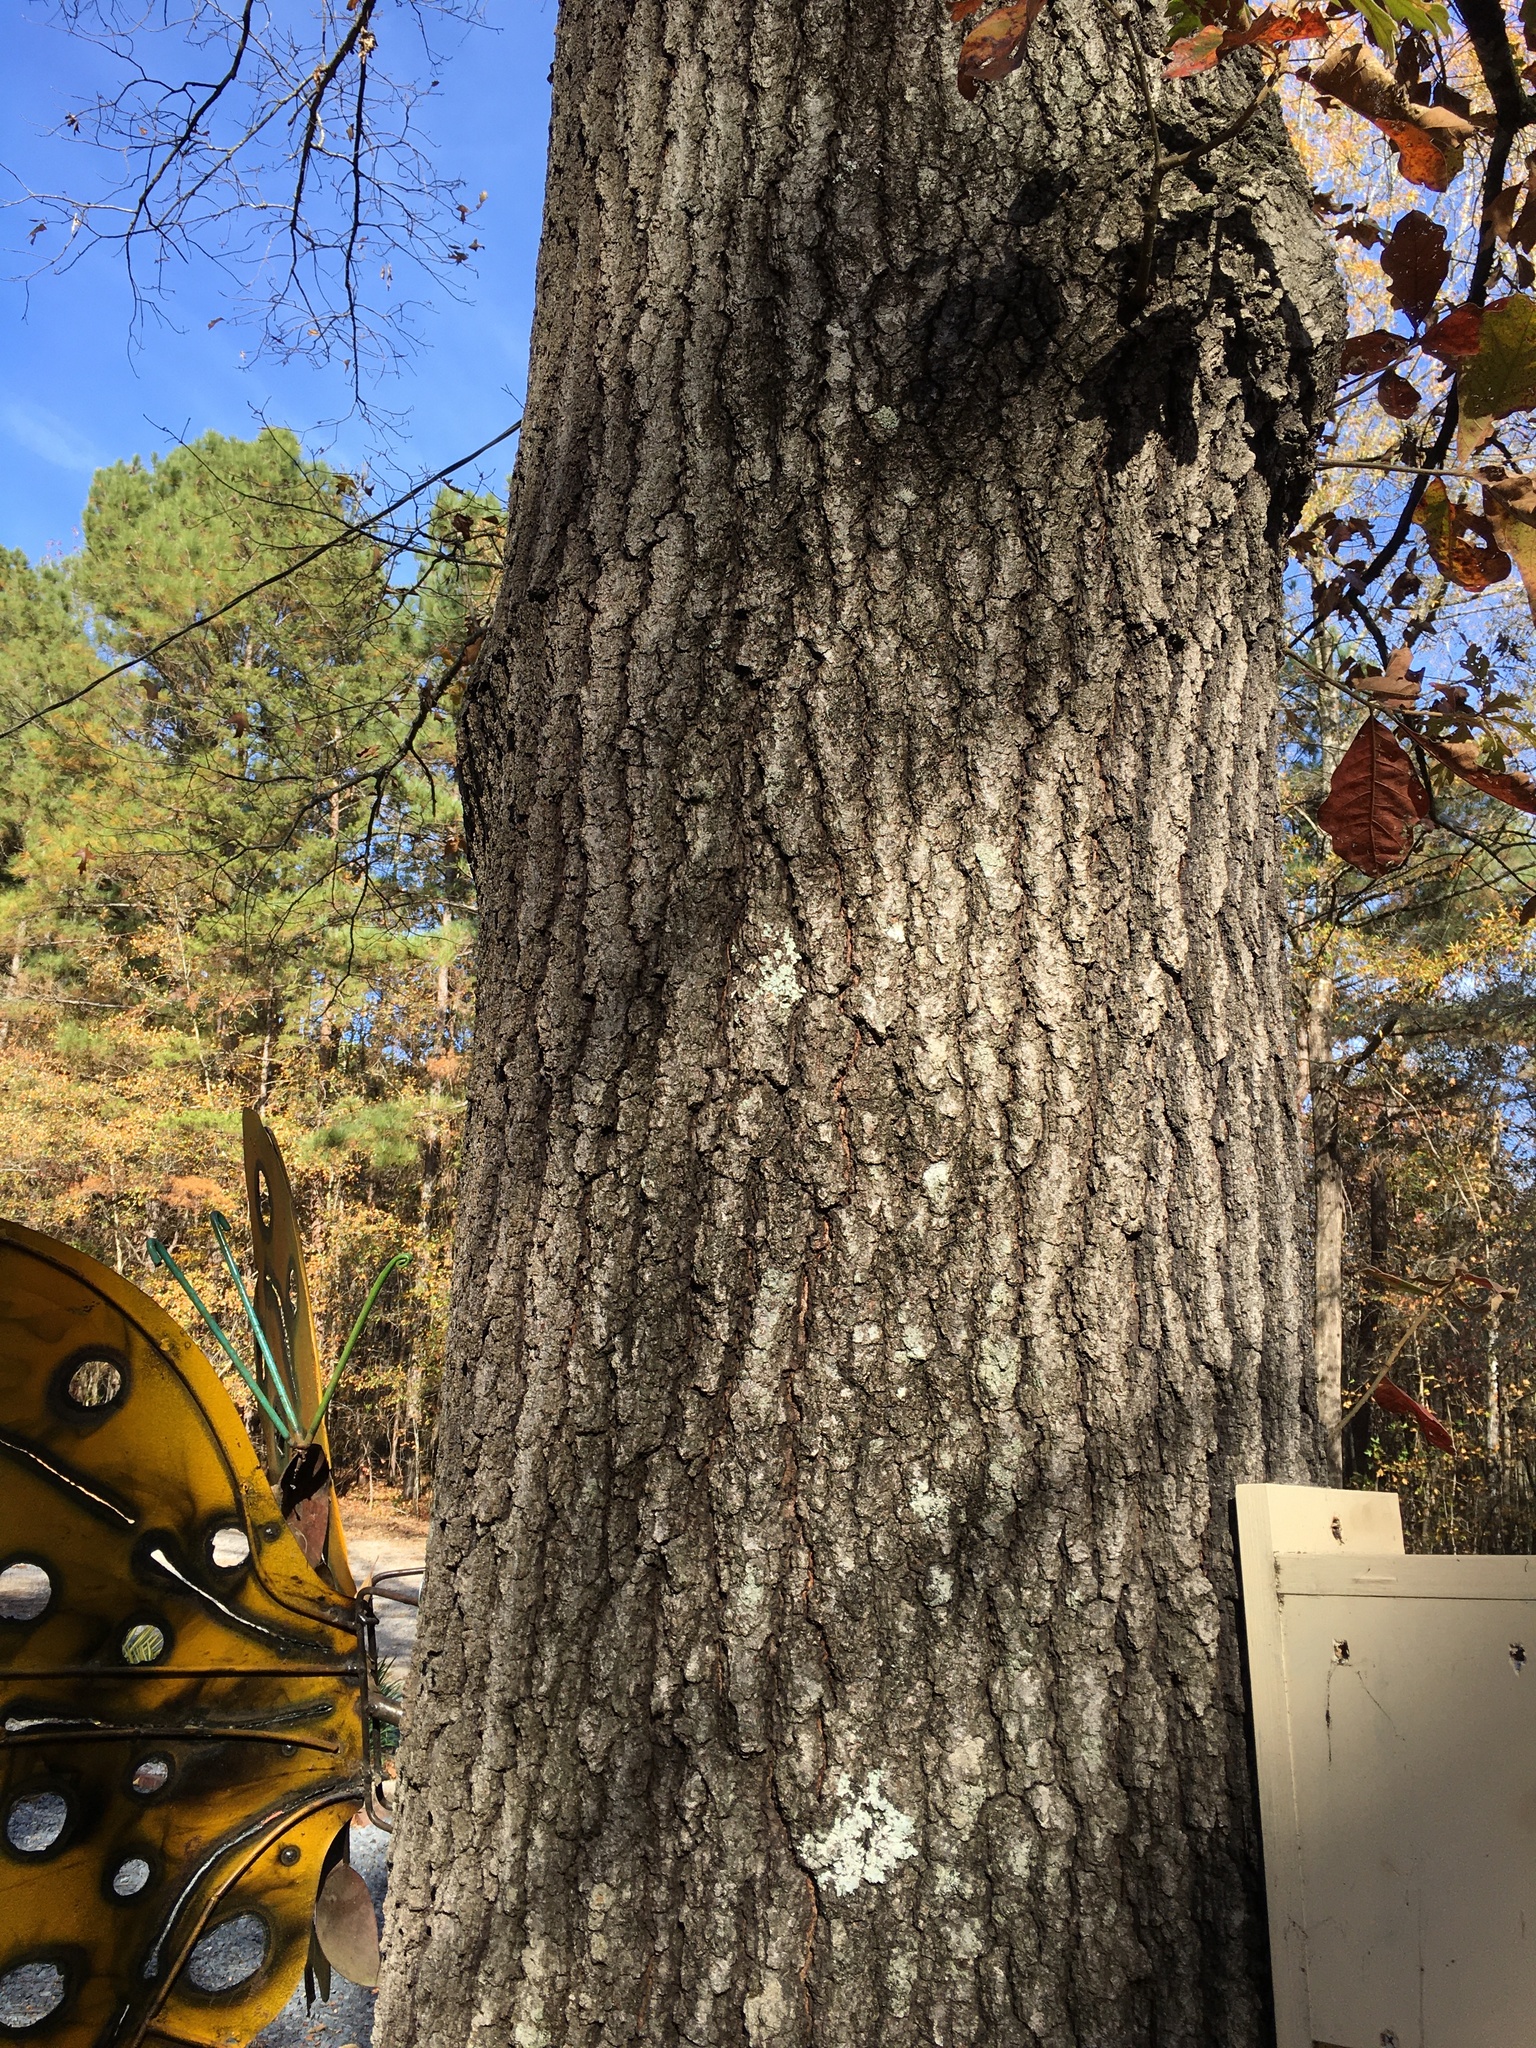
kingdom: Plantae
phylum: Tracheophyta
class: Magnoliopsida
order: Fagales
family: Fagaceae
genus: Quercus
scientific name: Quercus falcata
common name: Southern red oak
